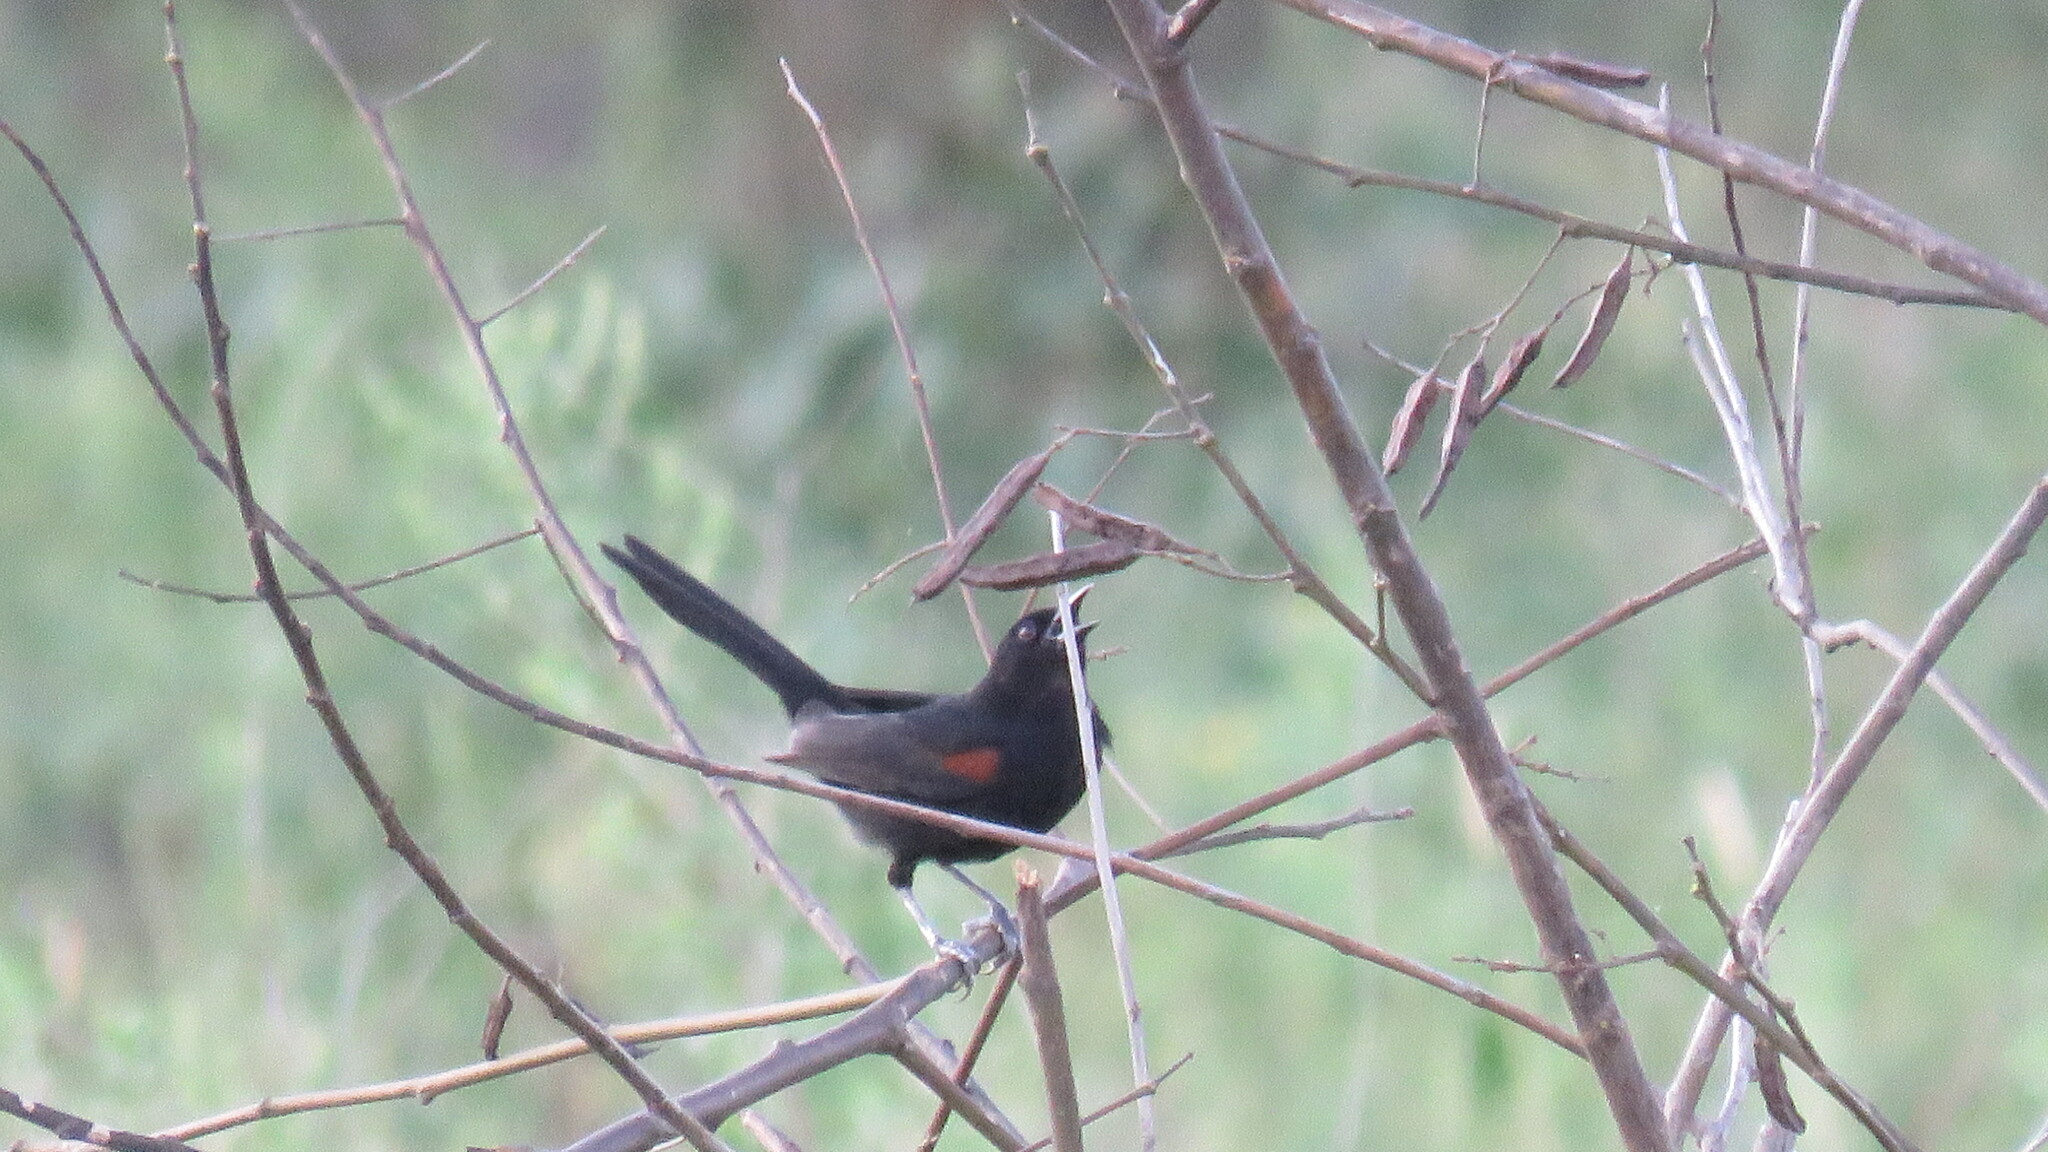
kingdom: Animalia
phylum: Chordata
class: Aves
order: Passeriformes
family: Icteridae
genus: Icterus
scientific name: Icterus cayanensis
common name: Epaulet oriole
